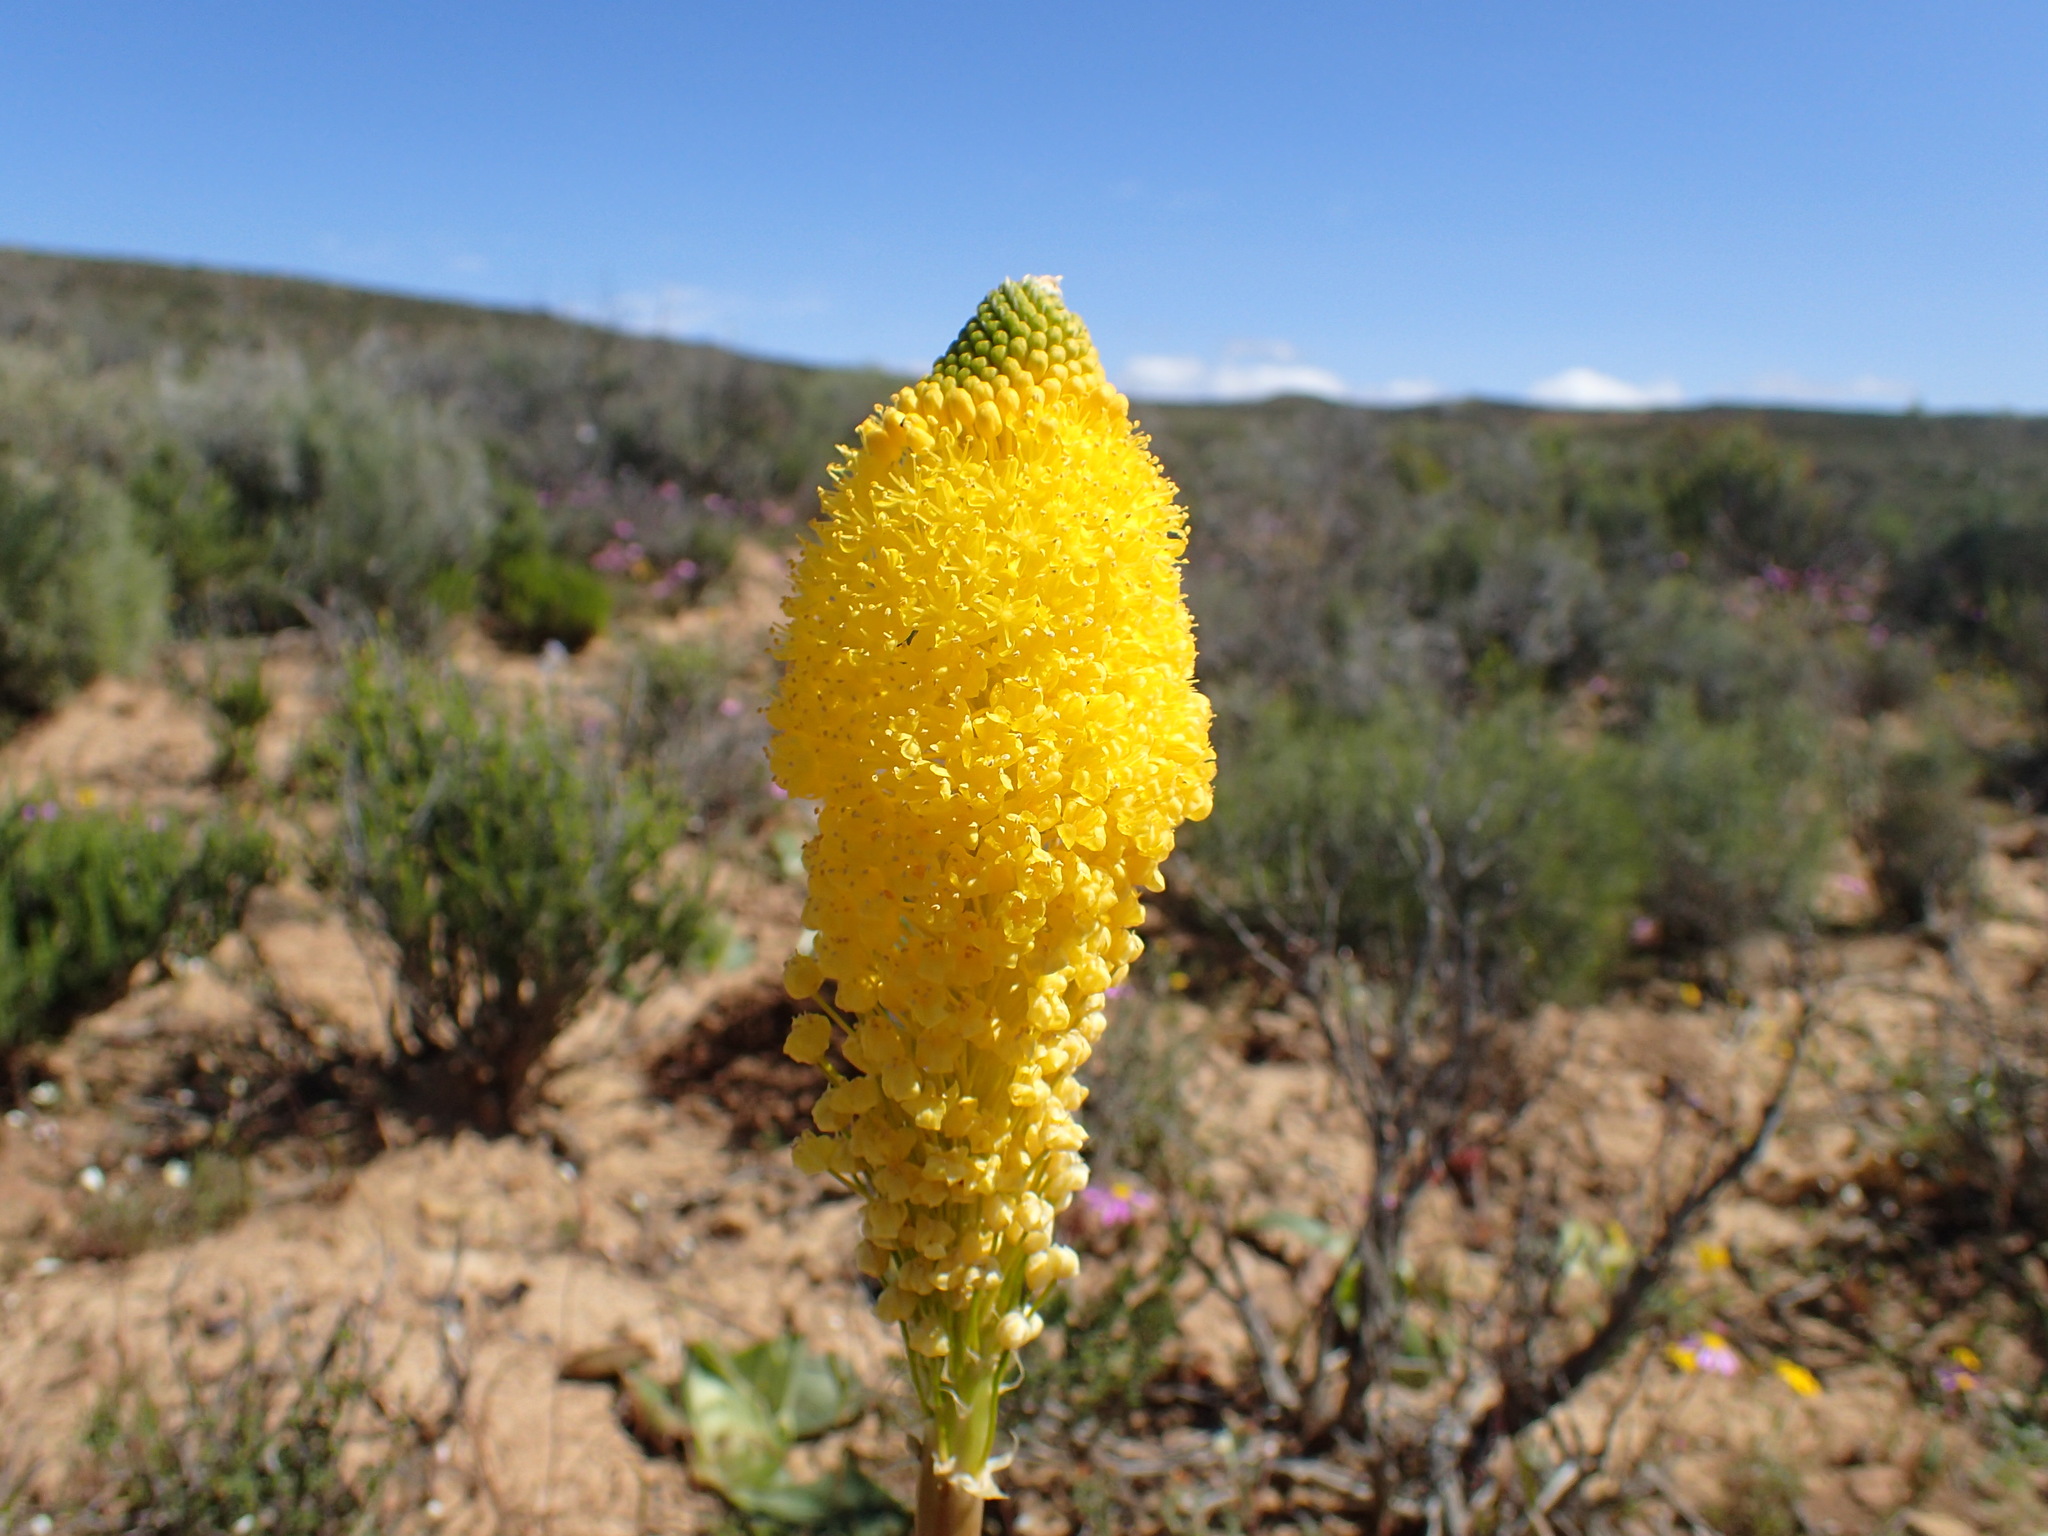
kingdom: Plantae
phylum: Tracheophyta
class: Liliopsida
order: Asparagales
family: Asphodelaceae
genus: Bulbinella
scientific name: Bulbinella latifolia
